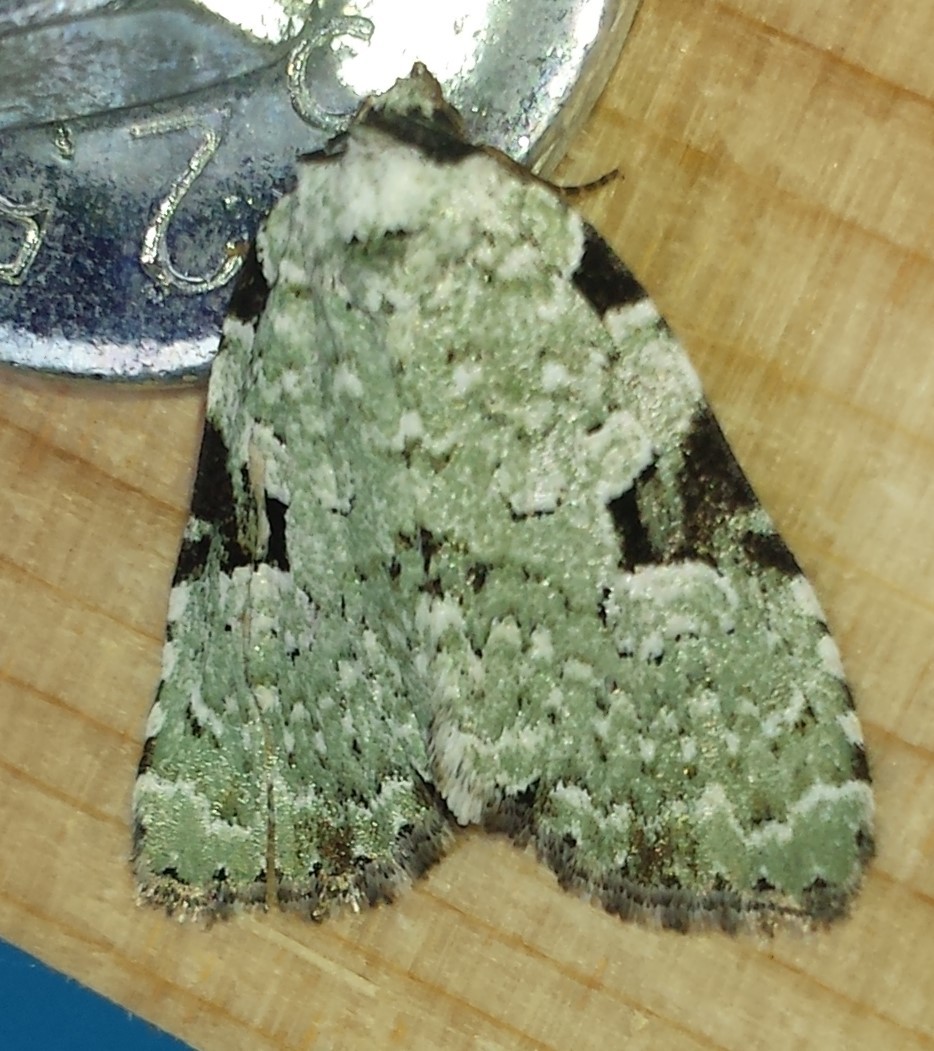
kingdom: Animalia
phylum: Arthropoda
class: Insecta
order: Lepidoptera
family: Noctuidae
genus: Leuconycta
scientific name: Leuconycta diphteroides
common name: Green leuconycta moth
